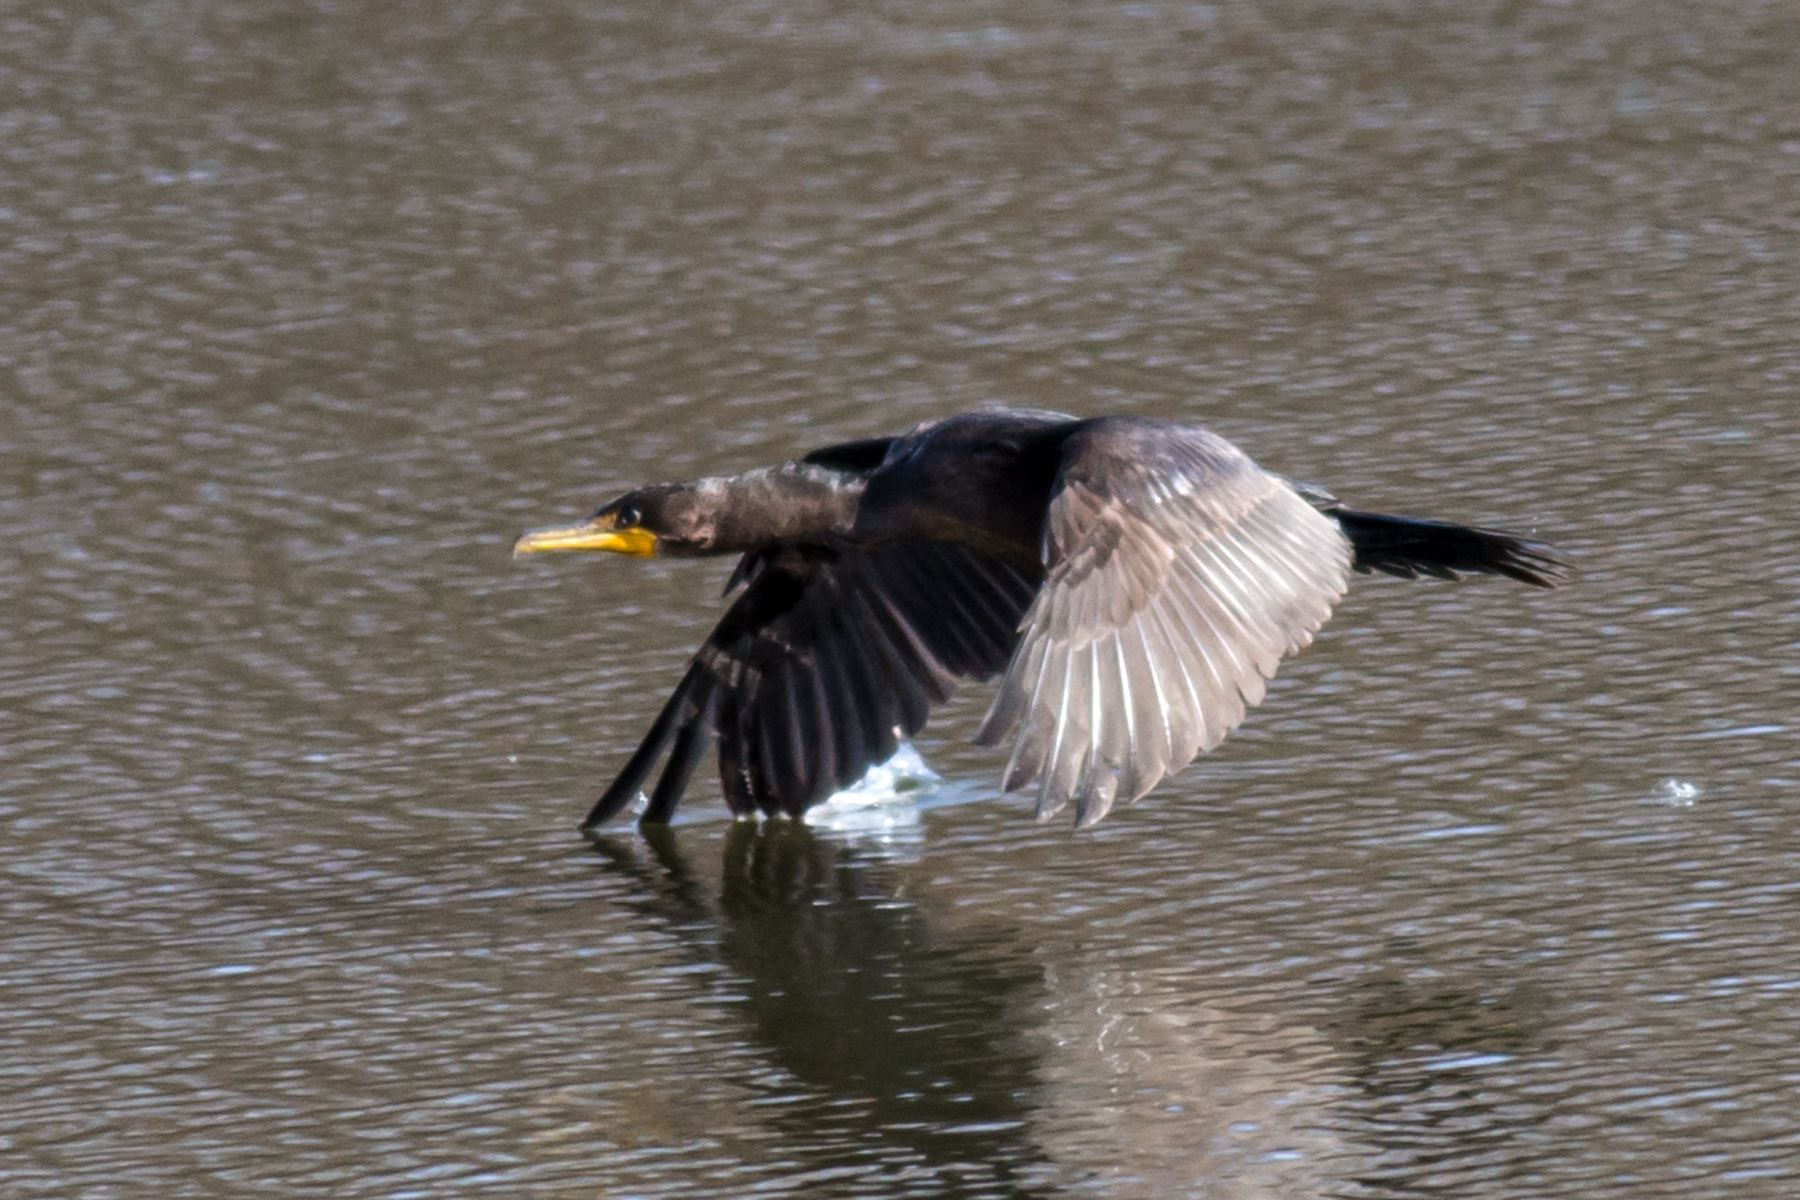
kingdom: Animalia
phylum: Chordata
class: Aves
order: Suliformes
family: Phalacrocoracidae
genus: Phalacrocorax
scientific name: Phalacrocorax auritus
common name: Double-crested cormorant
